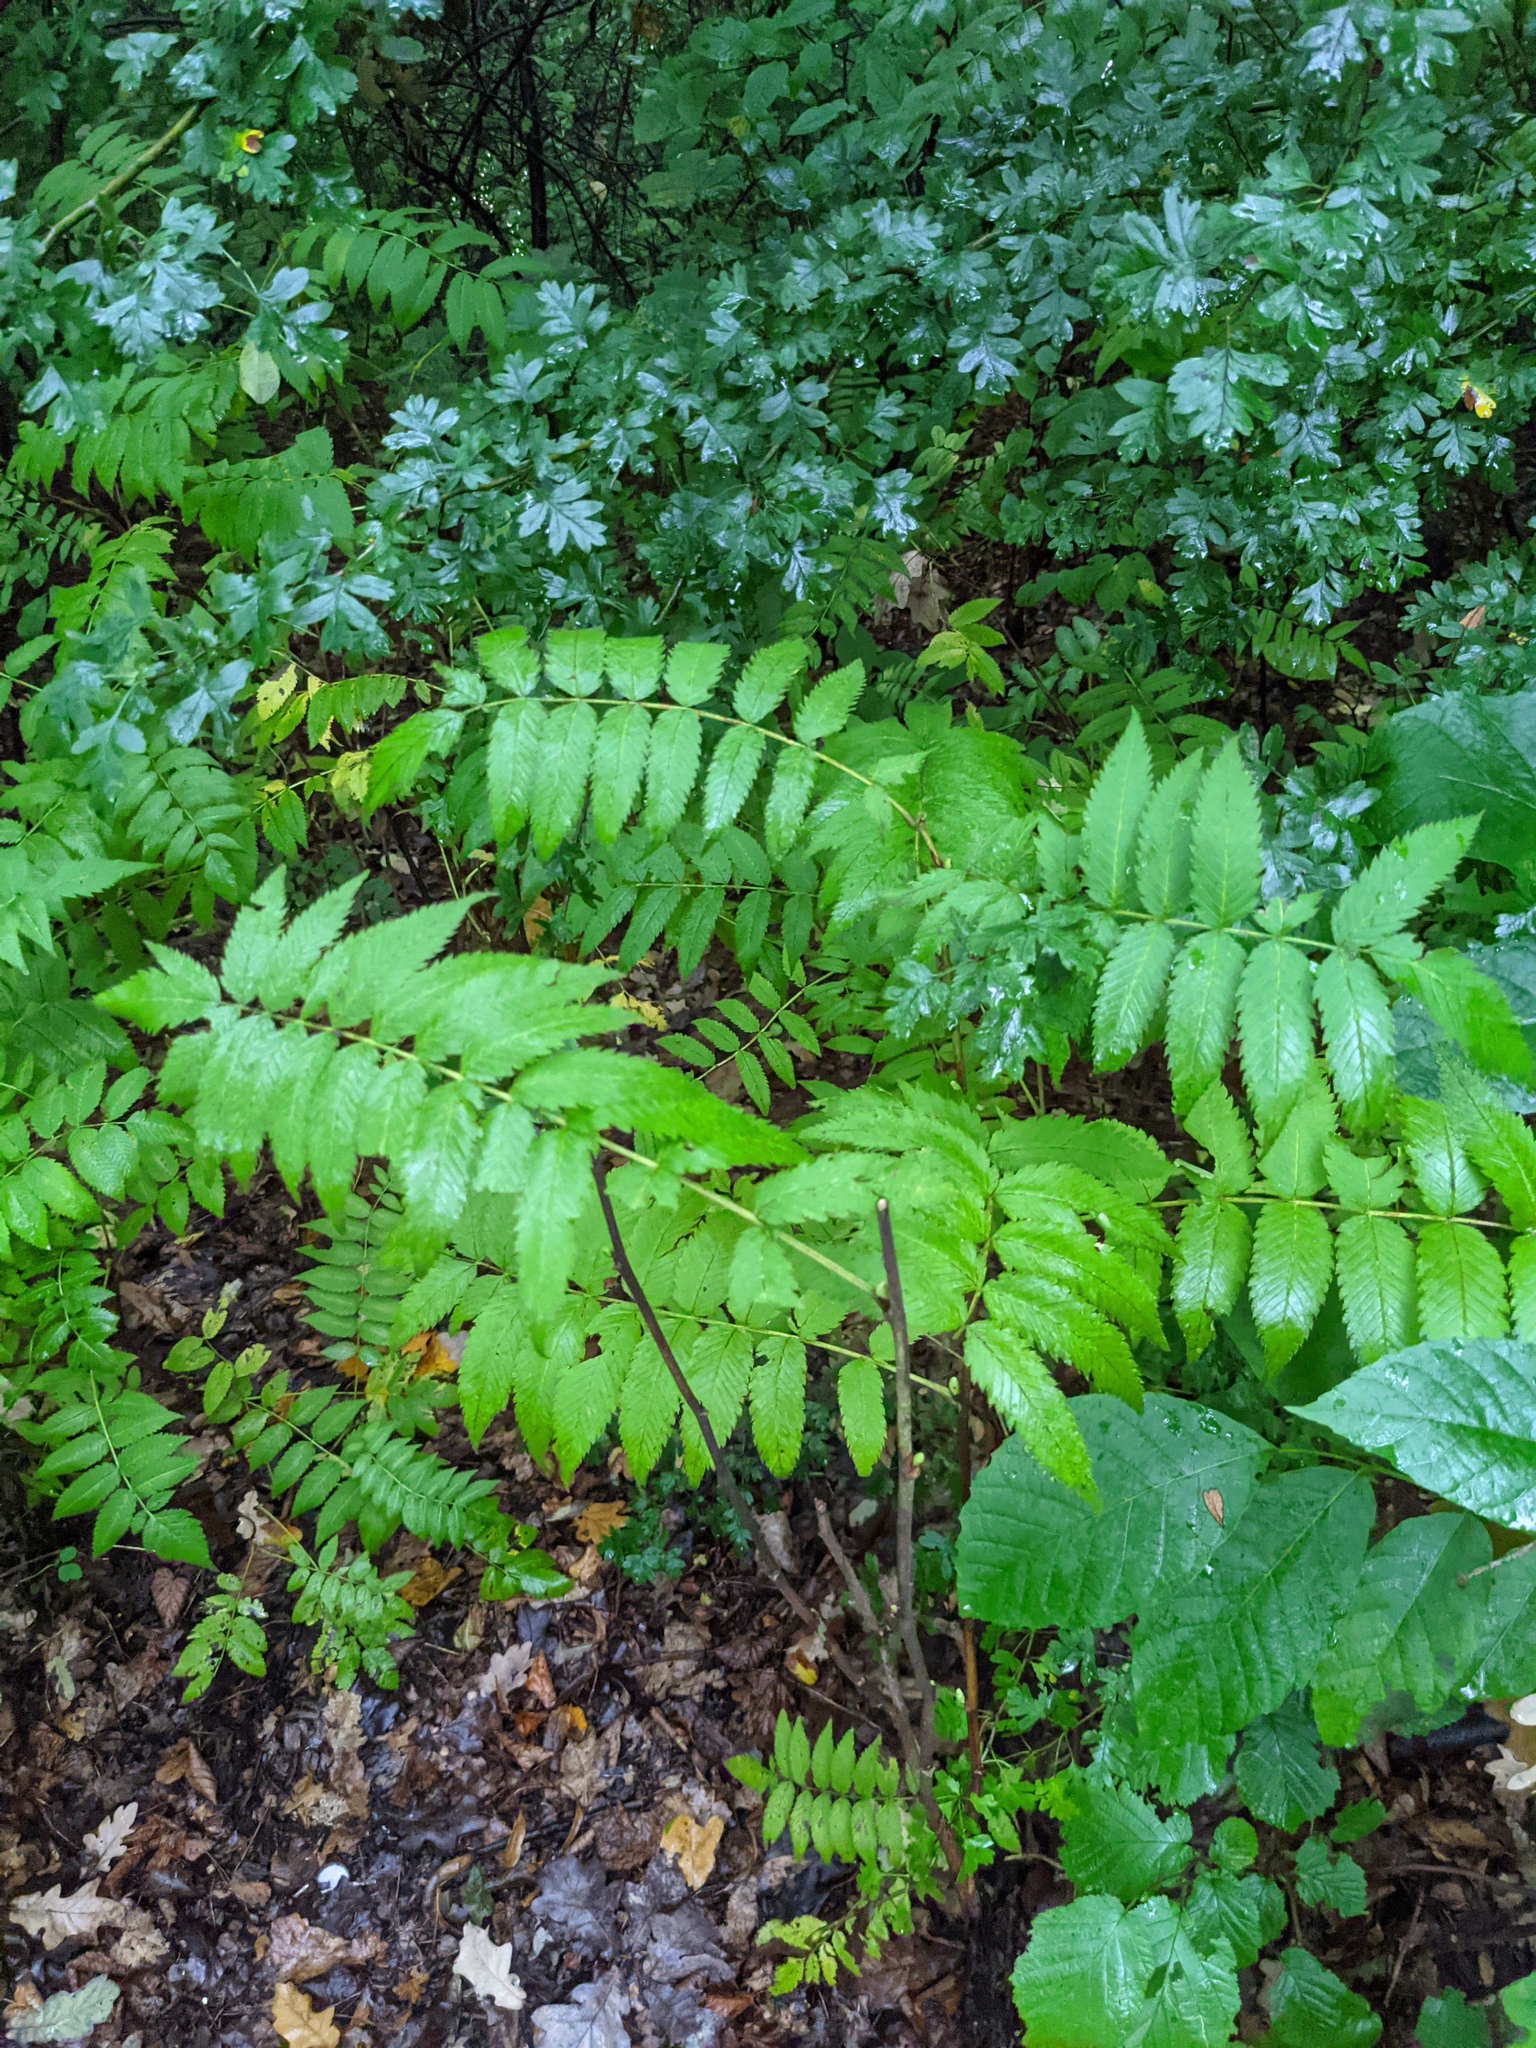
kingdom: Plantae
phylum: Tracheophyta
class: Magnoliopsida
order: Rosales
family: Rosaceae
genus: Sorbaria
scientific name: Sorbaria sorbifolia
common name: False spiraea
